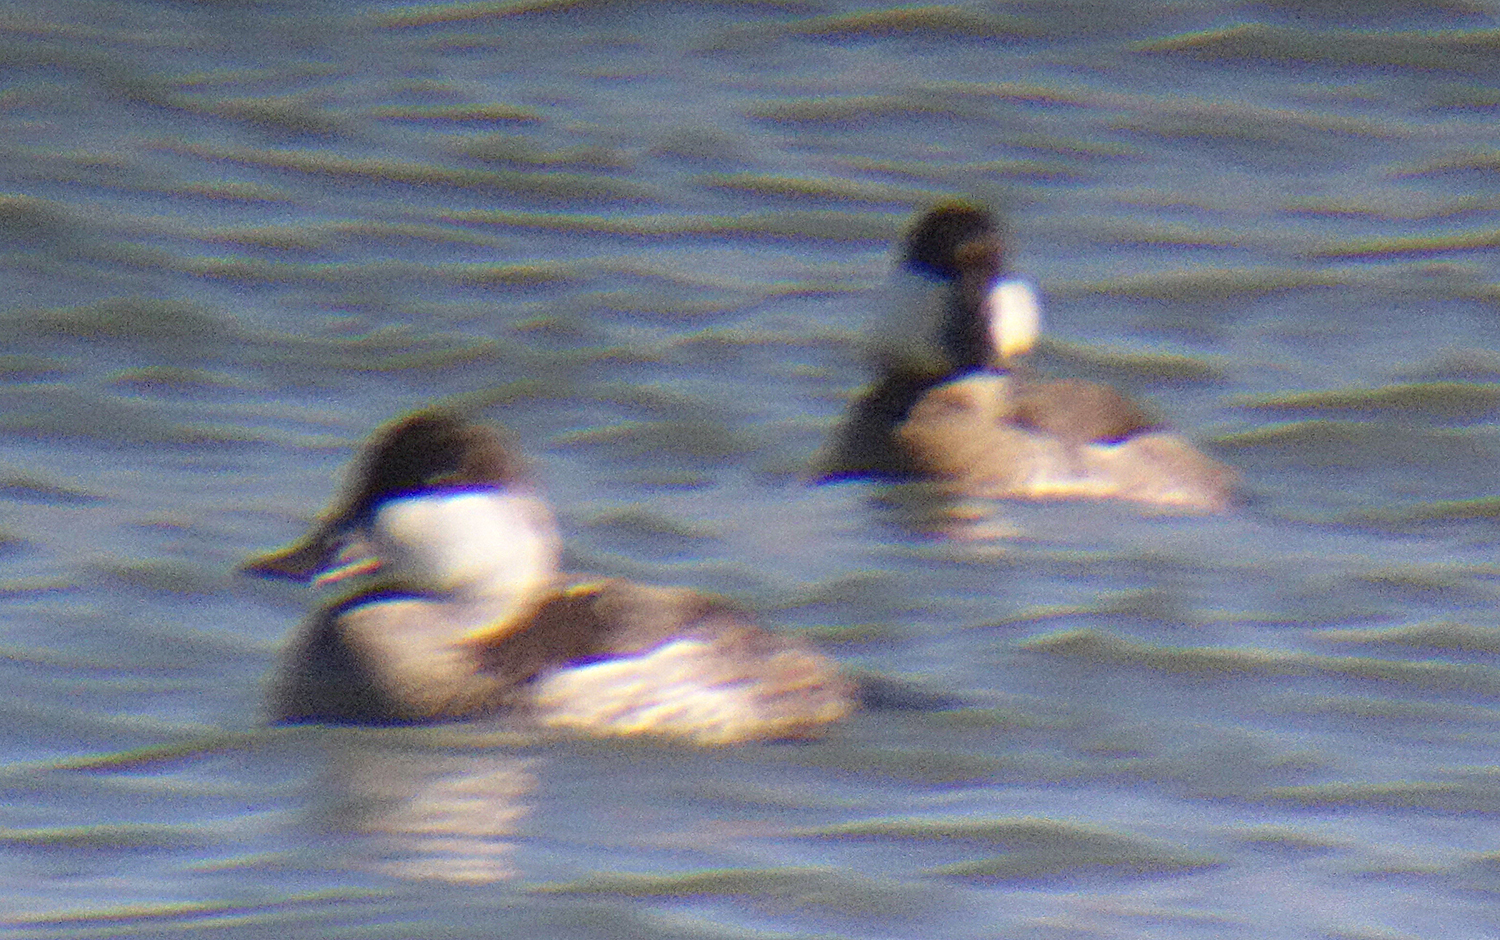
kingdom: Animalia
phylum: Chordata
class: Aves
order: Anseriformes
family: Anatidae
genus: Oxyura
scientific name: Oxyura jamaicensis
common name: Ruddy duck
